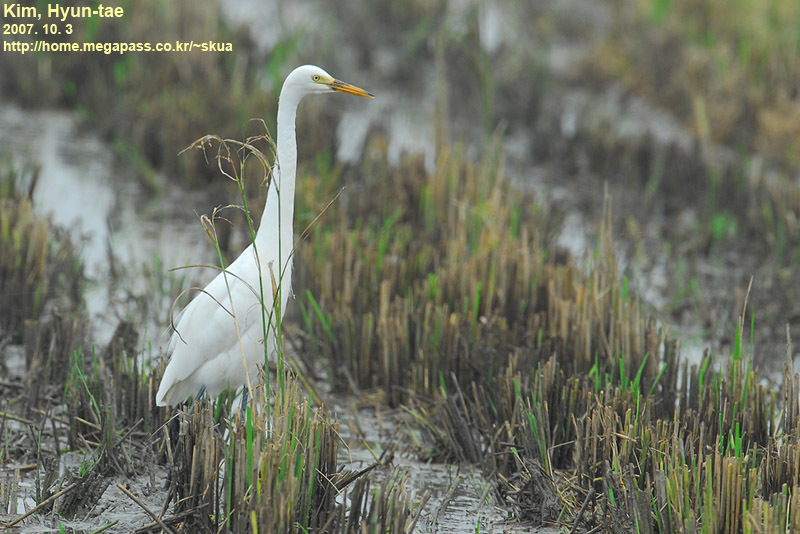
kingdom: Animalia
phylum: Chordata
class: Aves
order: Pelecaniformes
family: Ardeidae
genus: Egretta
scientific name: Egretta intermedia
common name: Intermediate egret
